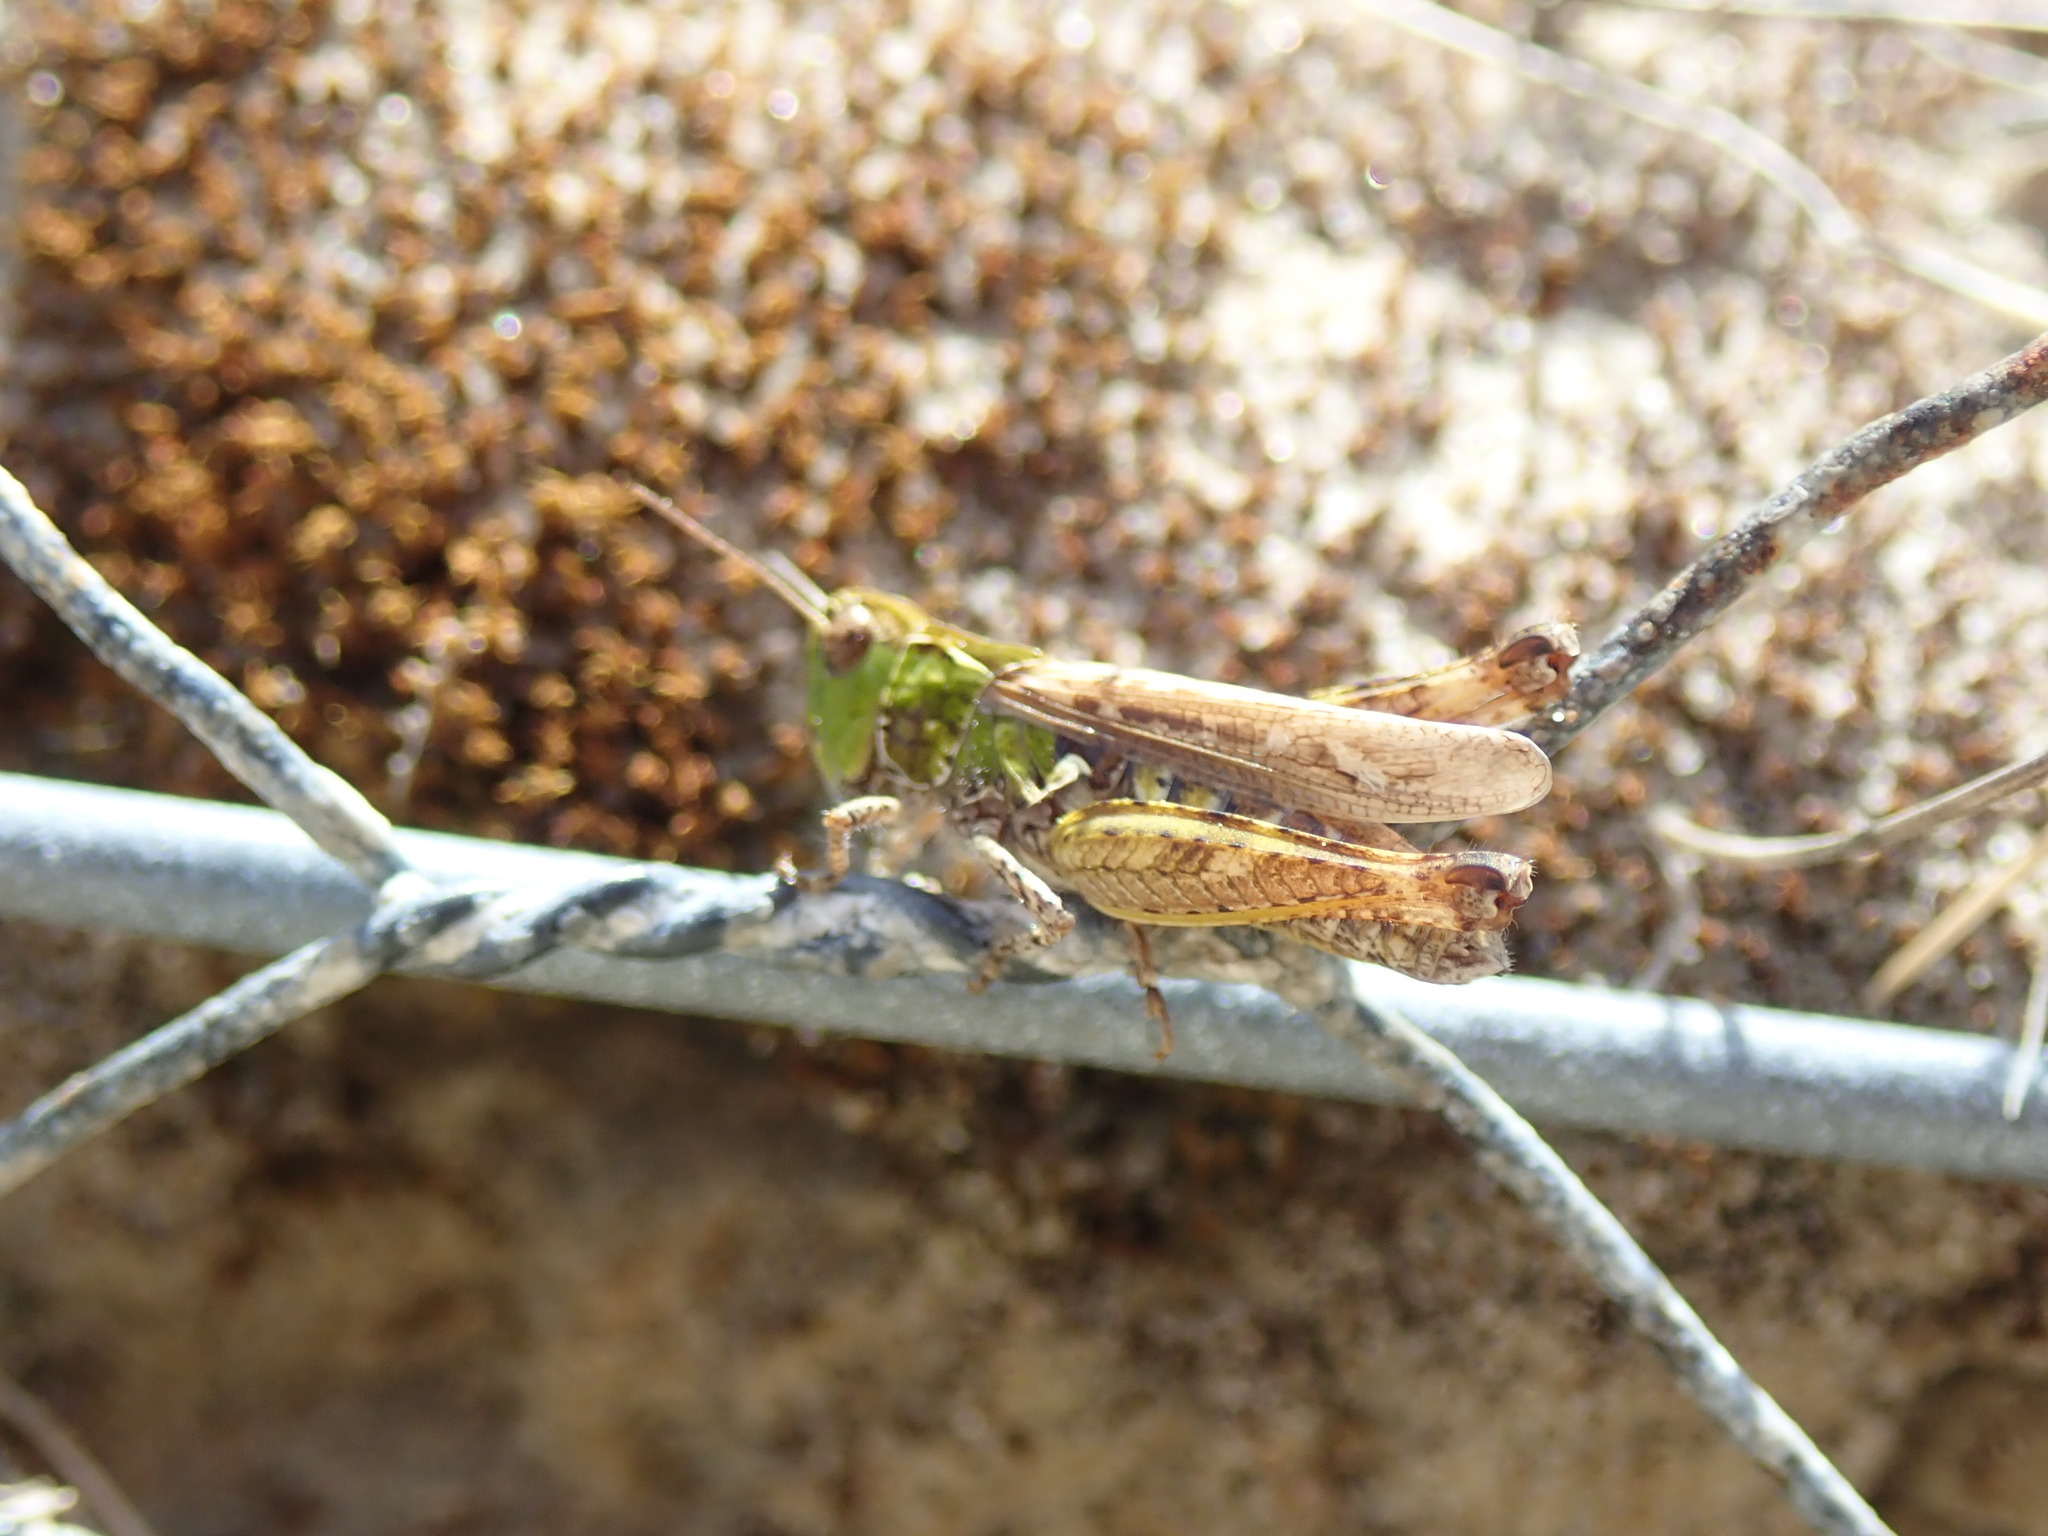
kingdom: Animalia
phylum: Arthropoda
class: Insecta
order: Orthoptera
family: Acrididae
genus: Myrmeleotettix
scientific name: Myrmeleotettix maculatus
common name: Mottled grasshopper
